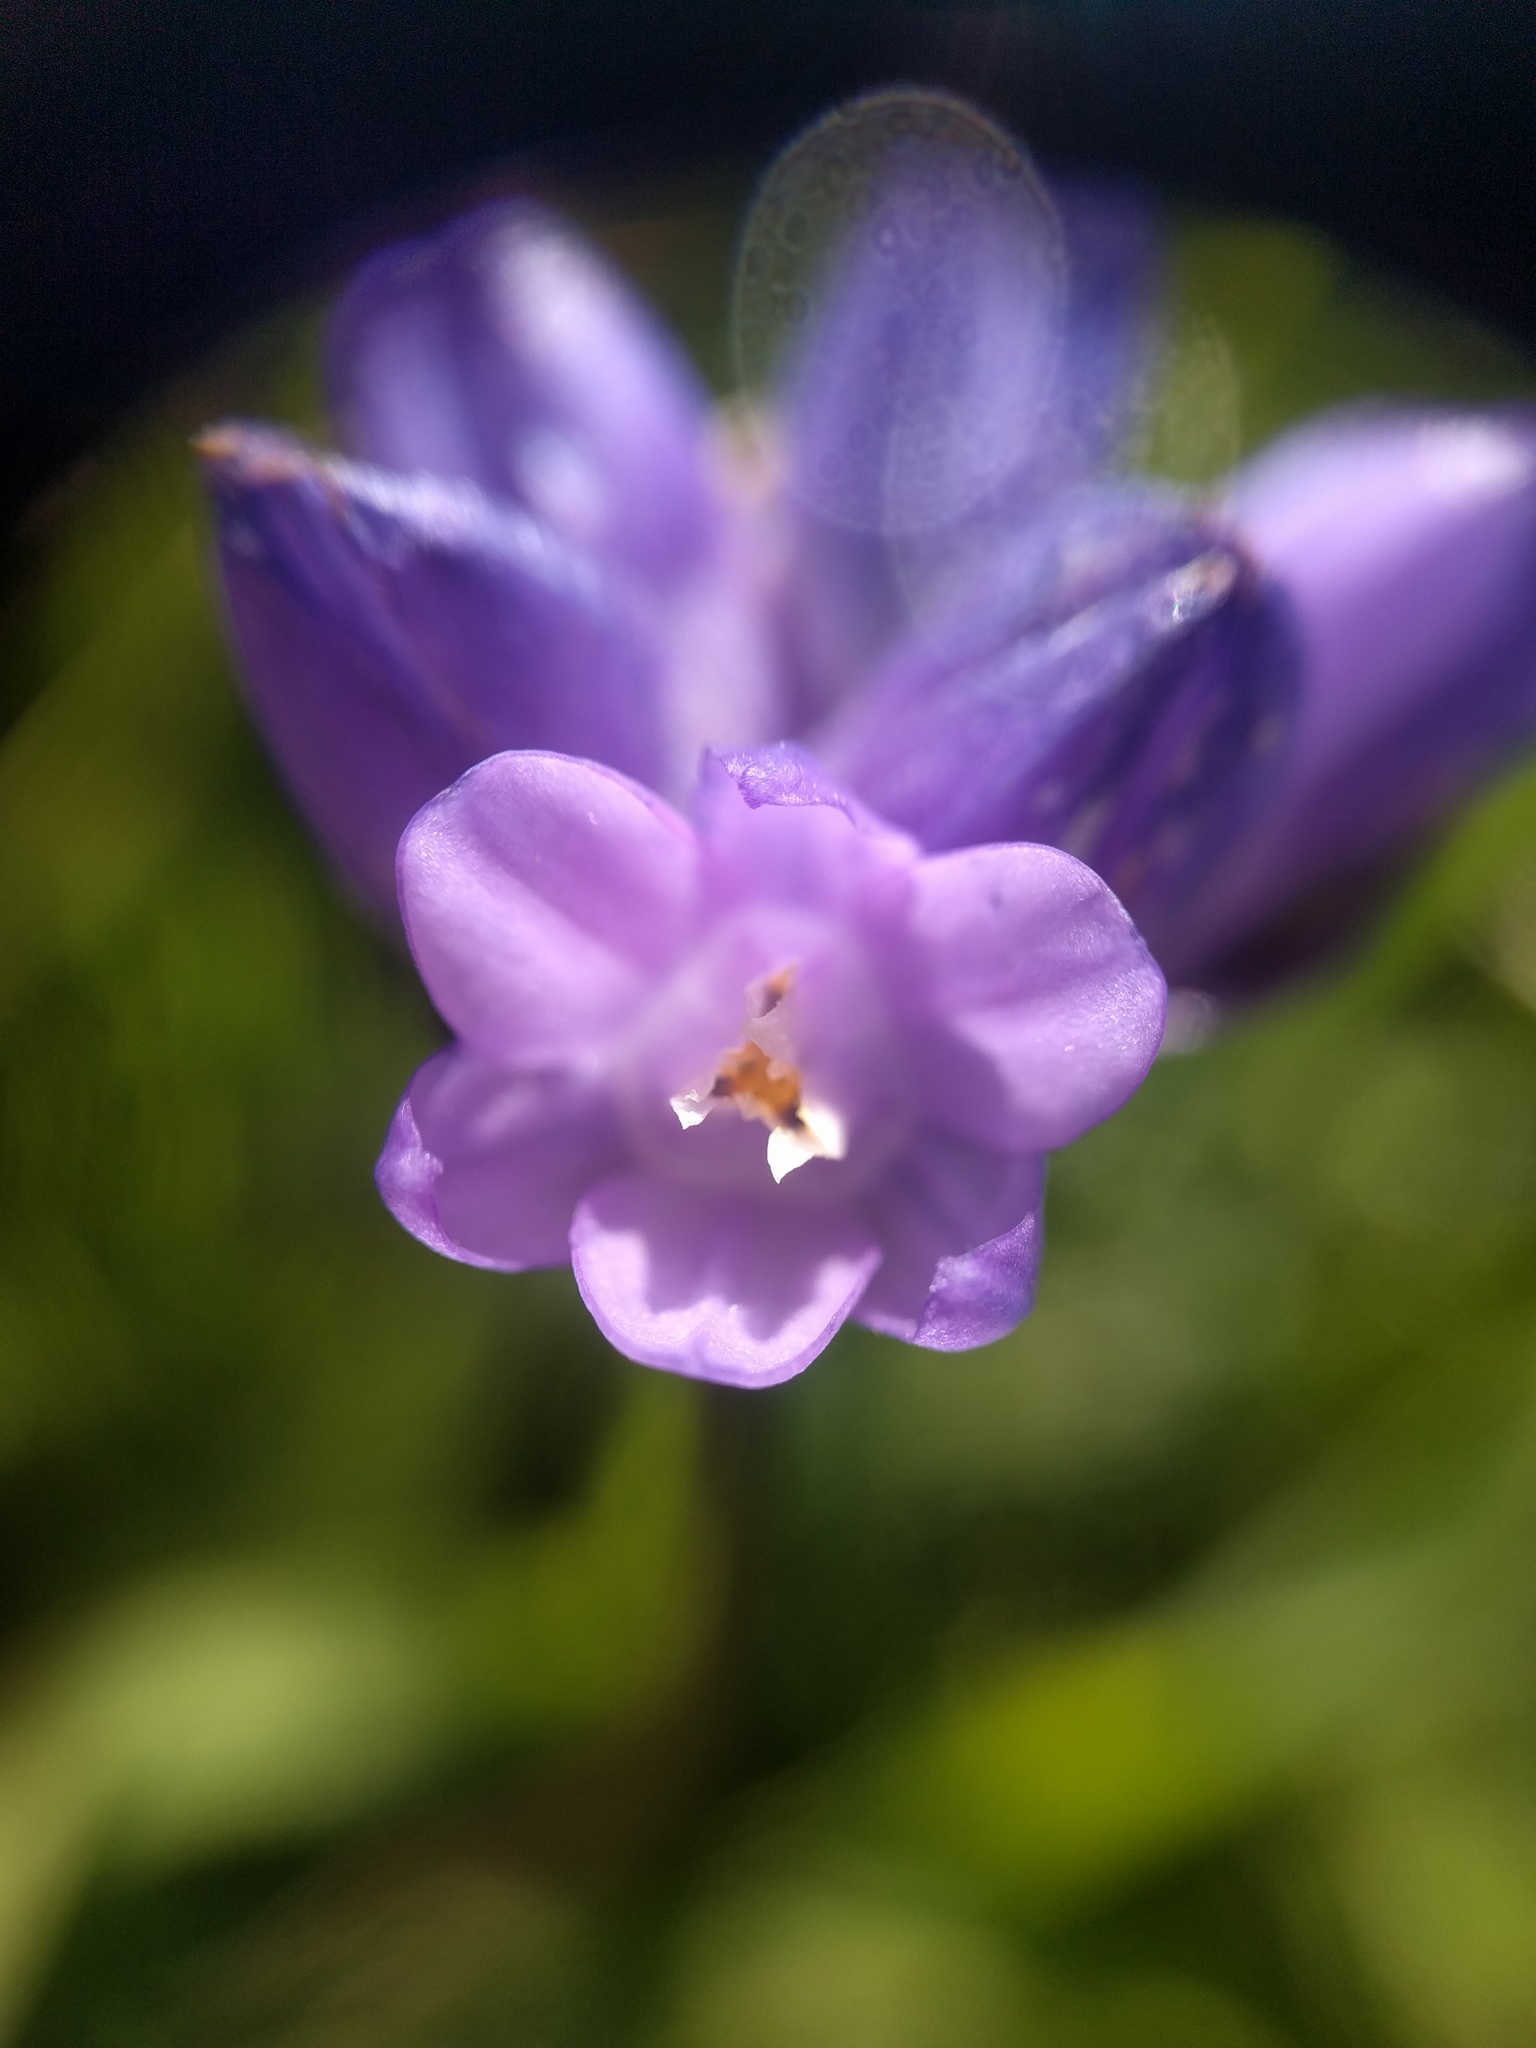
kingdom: Plantae
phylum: Tracheophyta
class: Liliopsida
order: Asparagales
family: Asparagaceae
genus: Dipterostemon
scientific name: Dipterostemon capitatus
